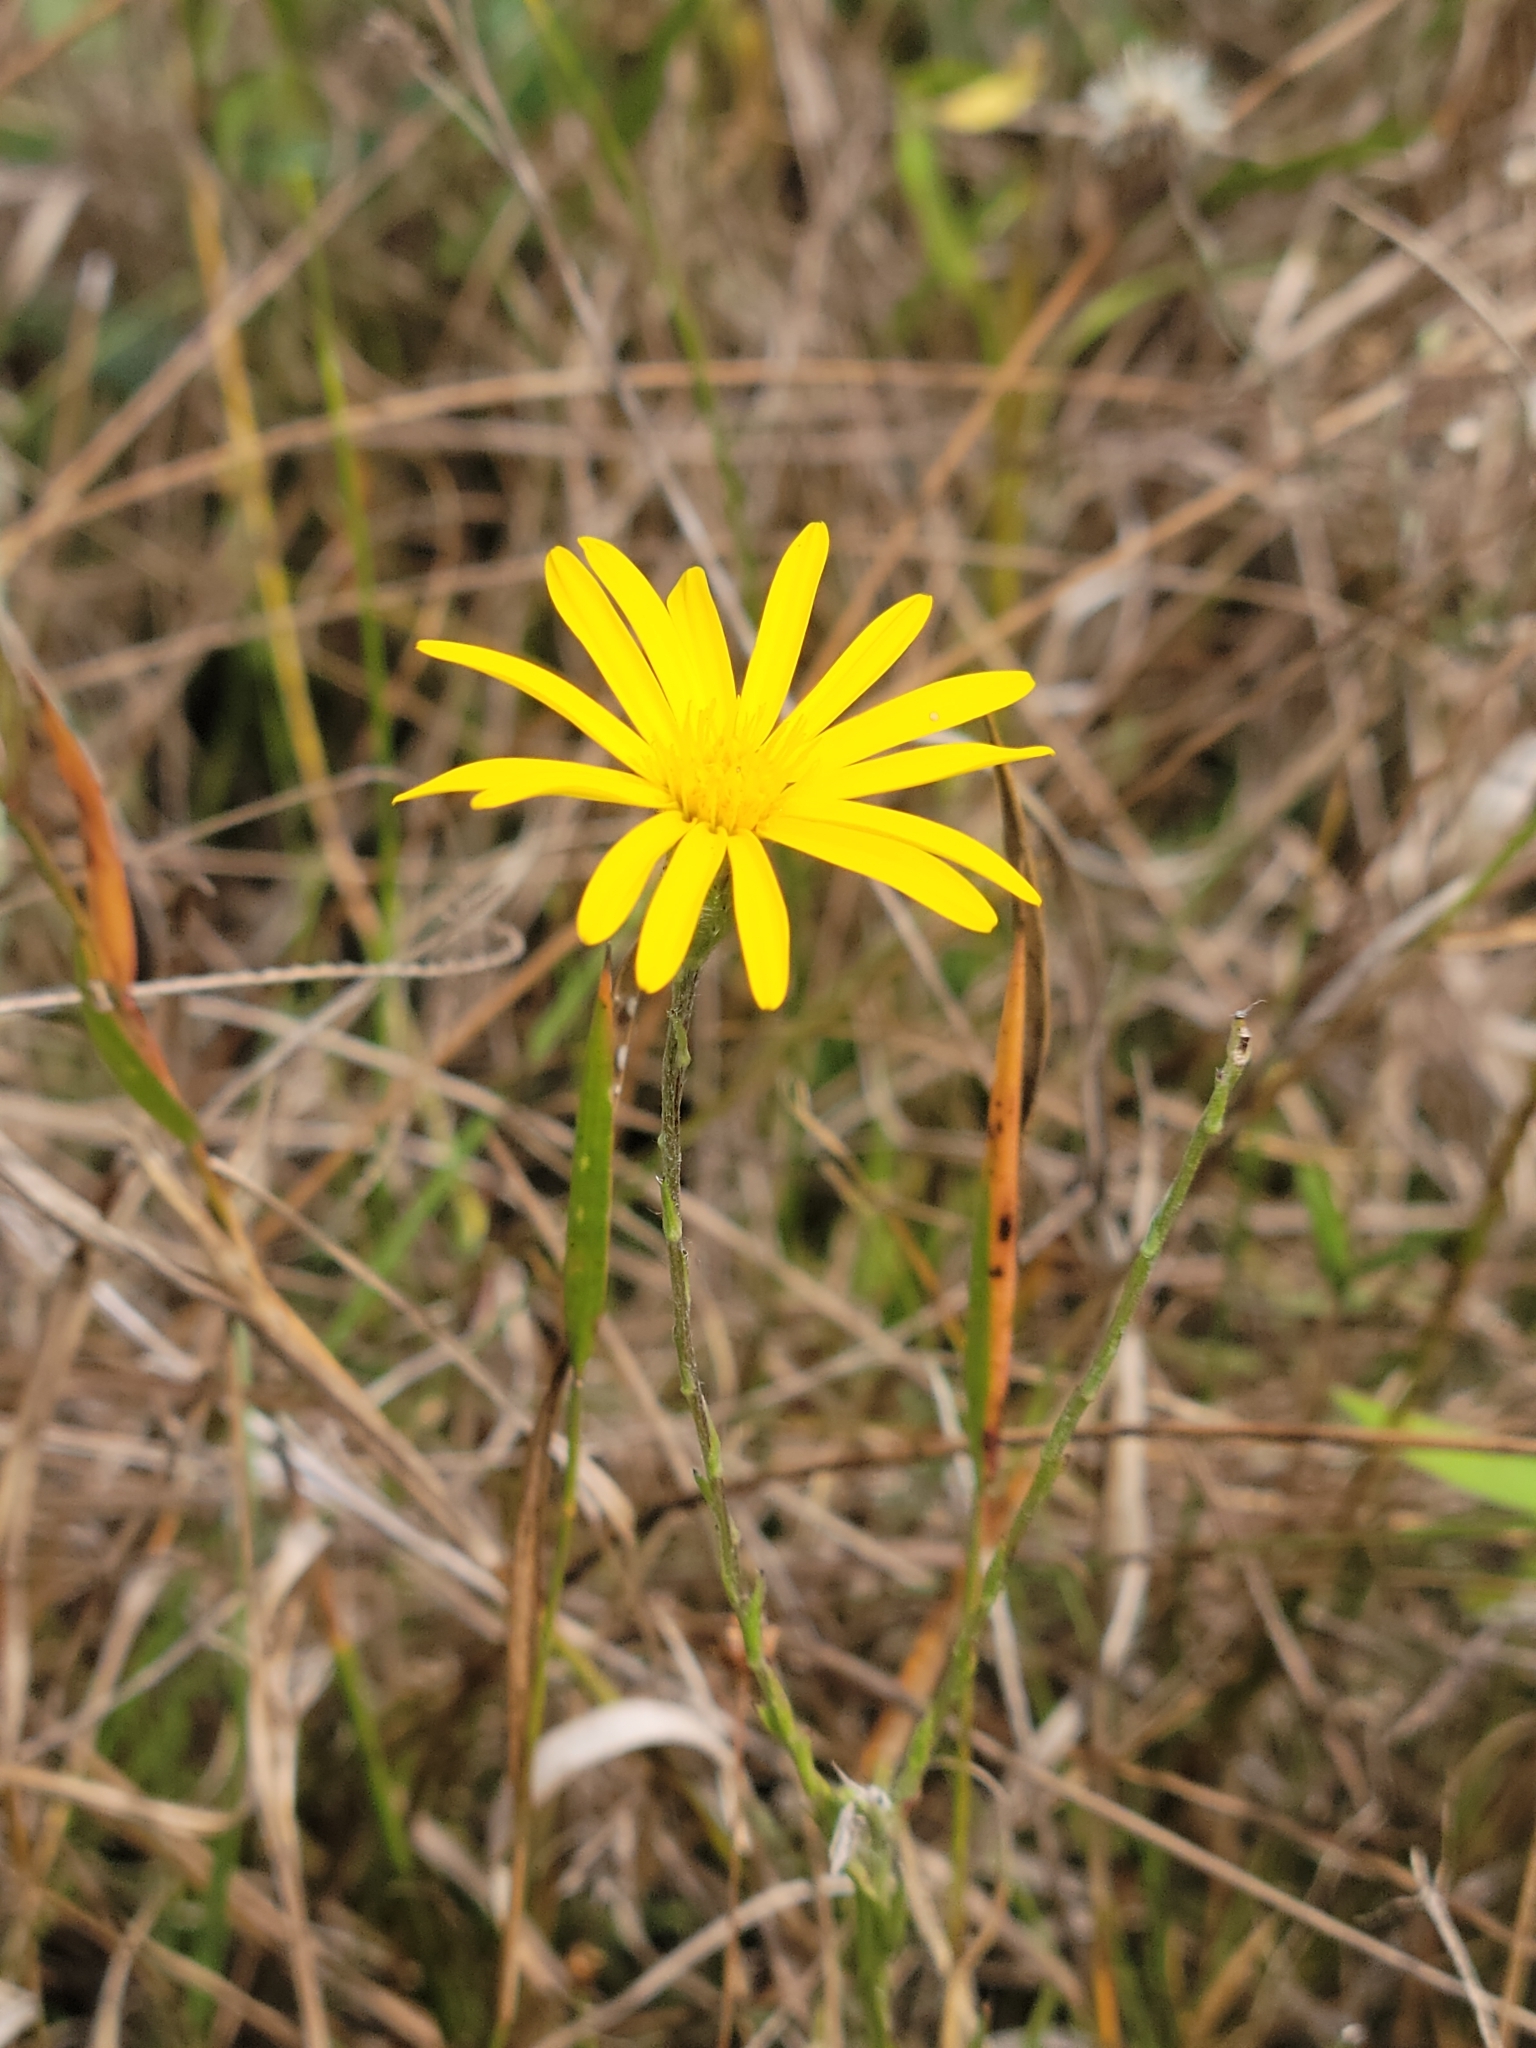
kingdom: Plantae
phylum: Tracheophyta
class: Magnoliopsida
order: Asterales
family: Asteraceae
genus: Pityopsis
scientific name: Pityopsis tracyi
